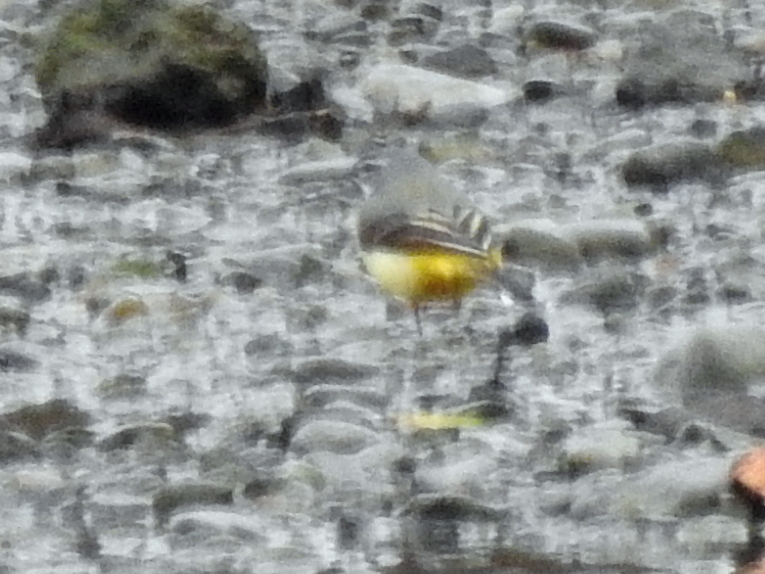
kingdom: Animalia
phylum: Chordata
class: Aves
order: Passeriformes
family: Motacillidae
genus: Motacilla
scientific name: Motacilla cinerea
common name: Grey wagtail
